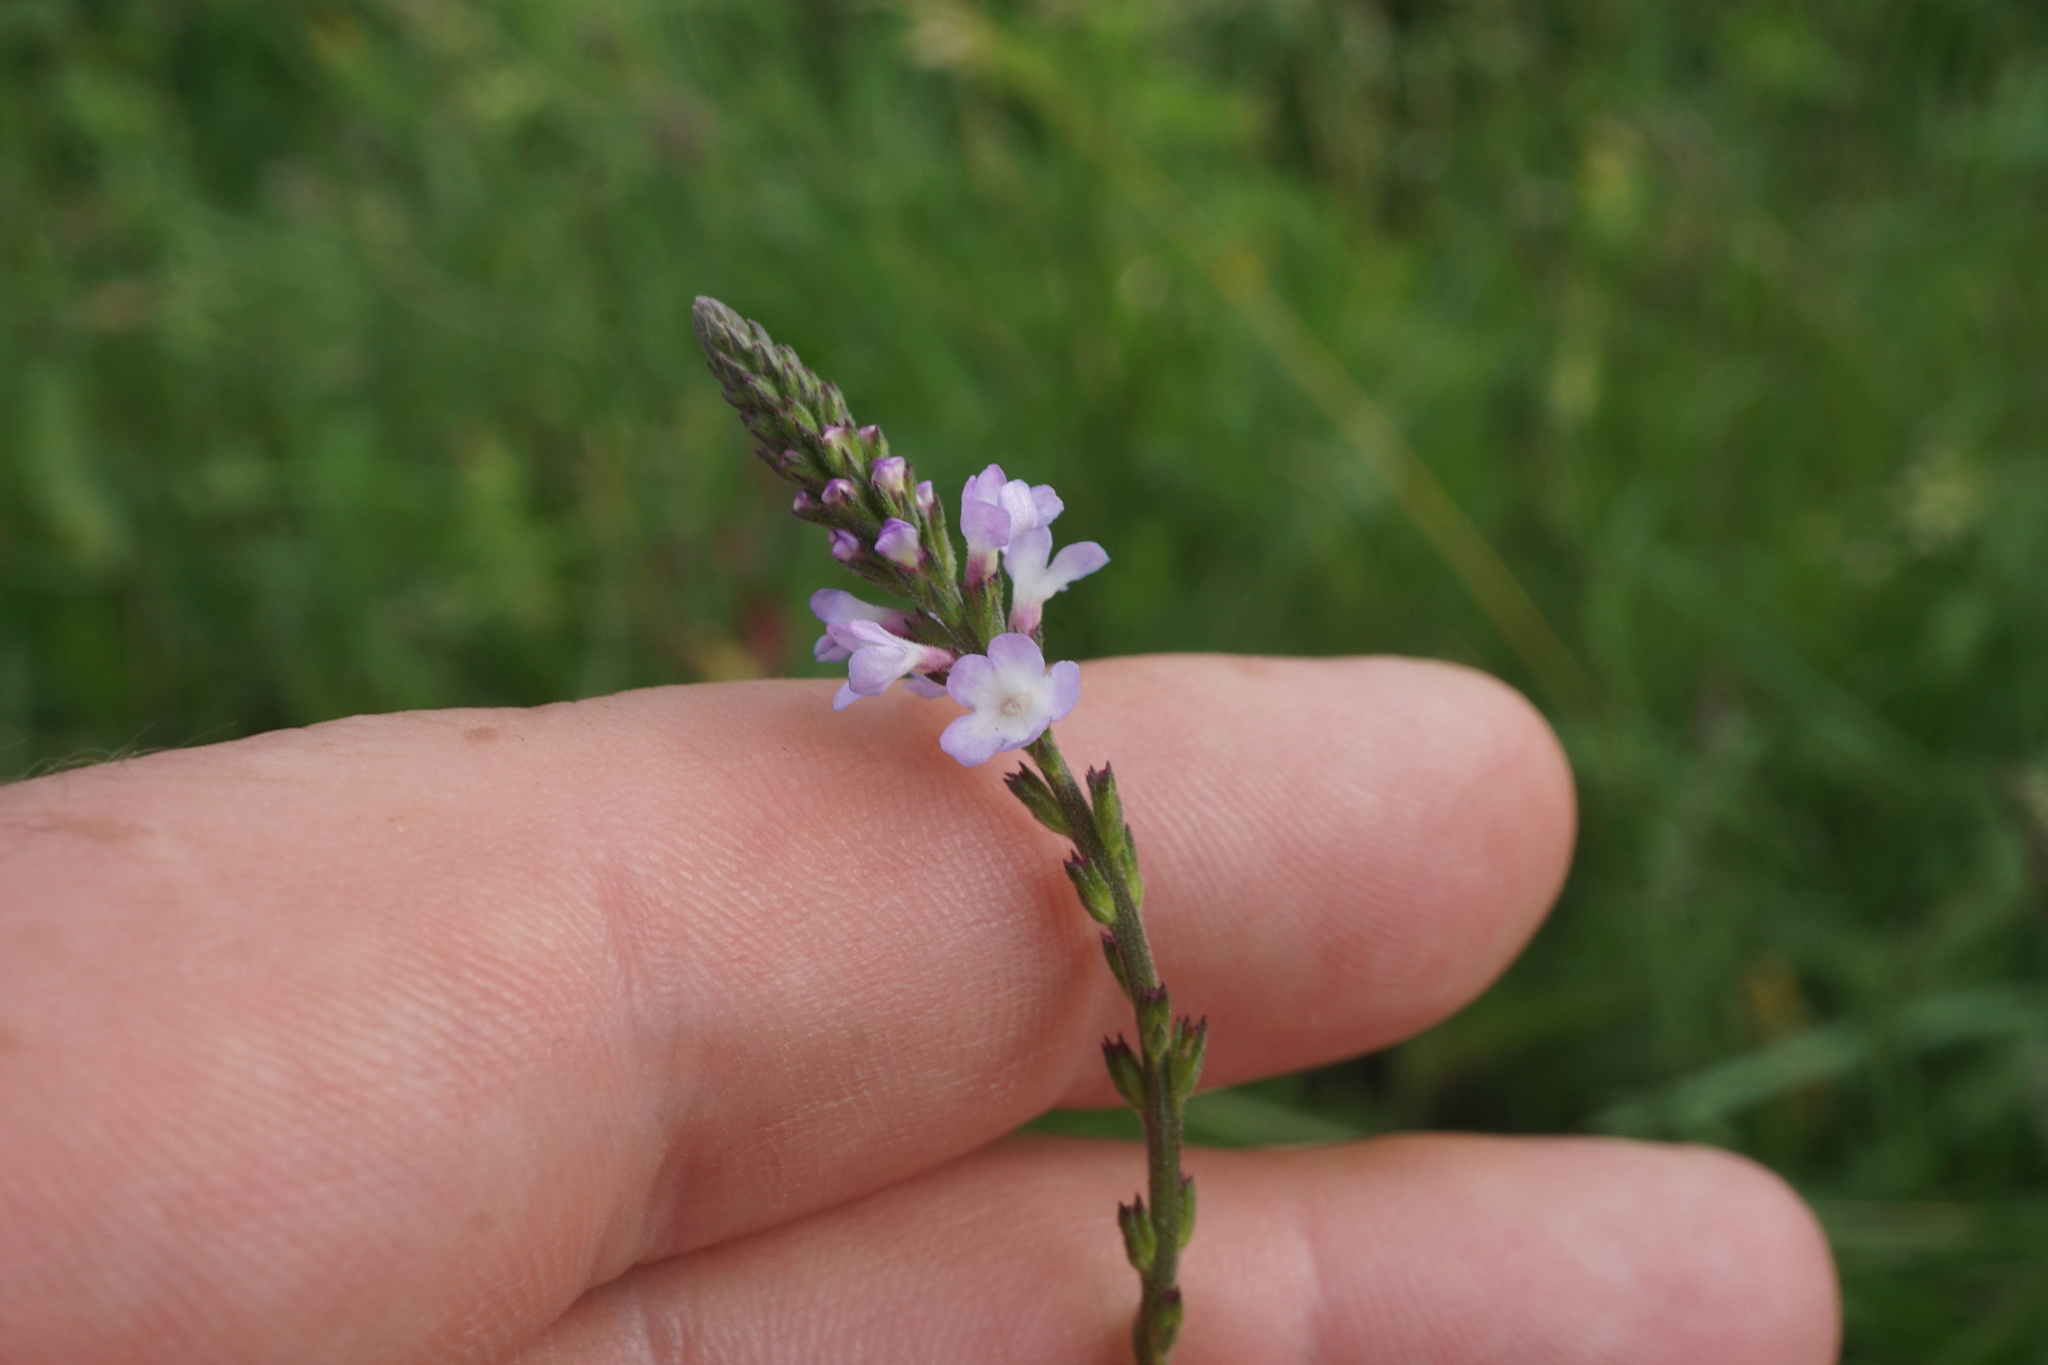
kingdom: Plantae
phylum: Tracheophyta
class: Magnoliopsida
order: Lamiales
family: Verbenaceae
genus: Verbena
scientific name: Verbena officinalis
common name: Vervain
